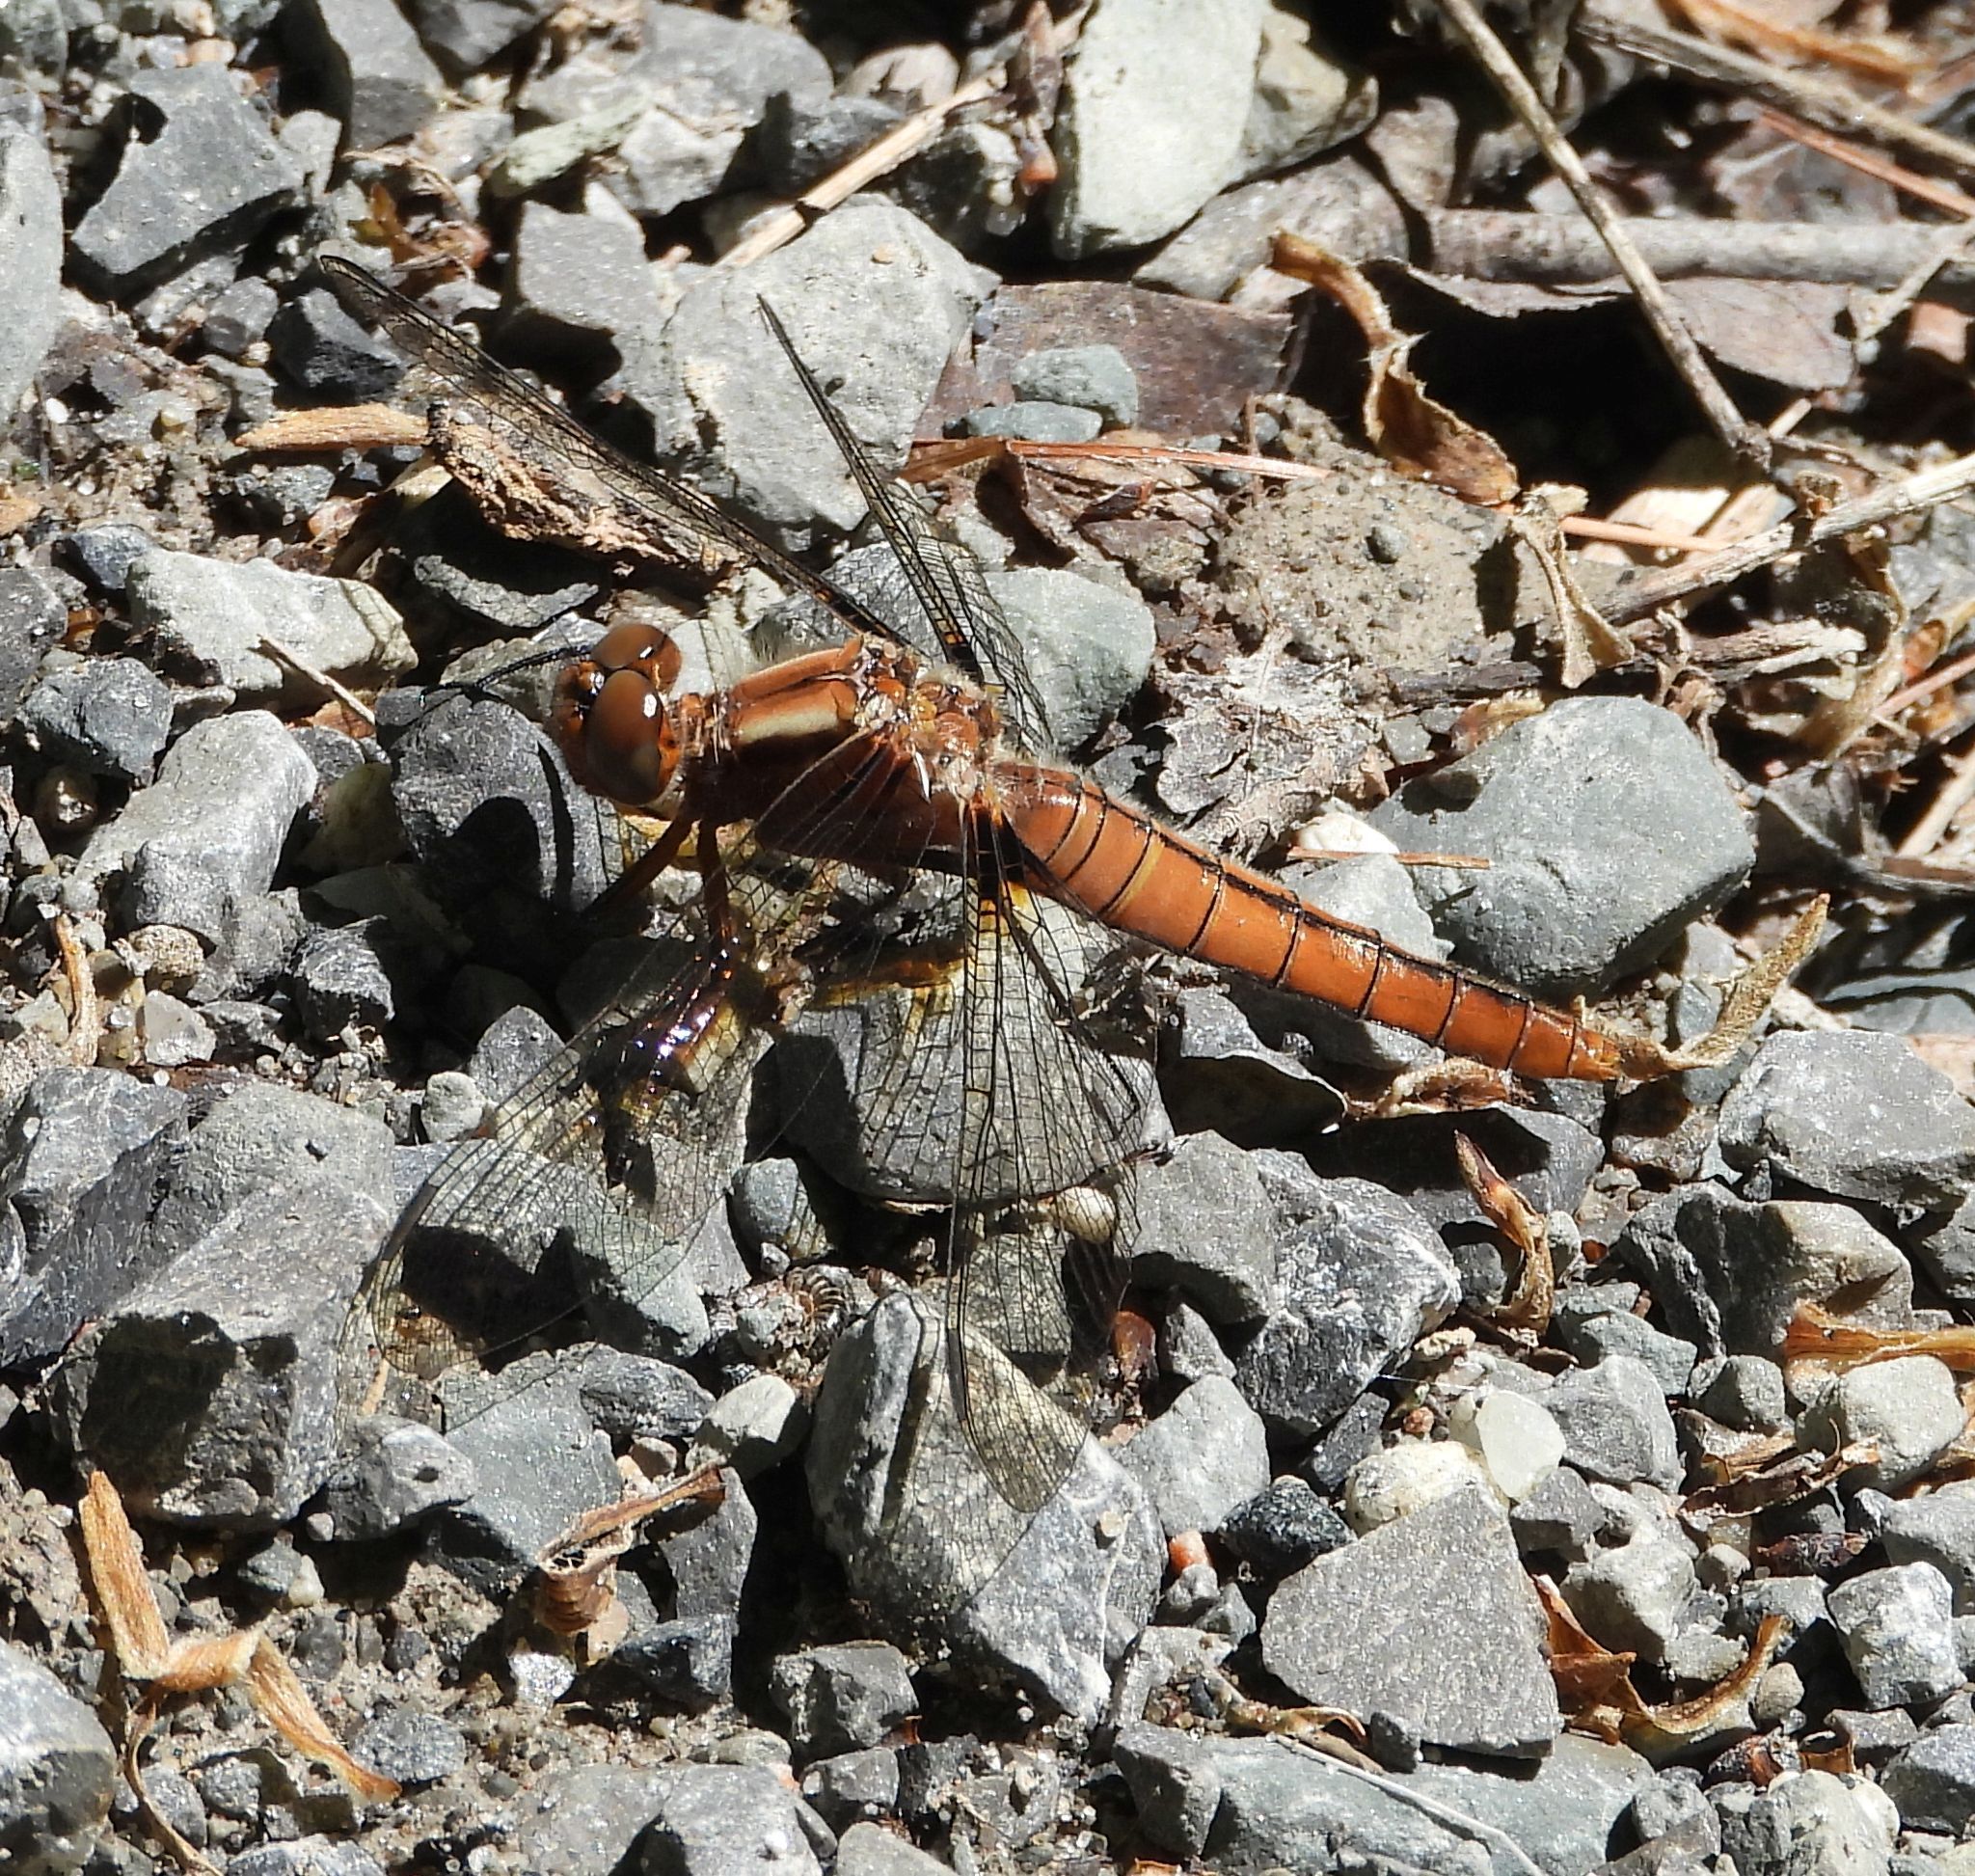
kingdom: Animalia
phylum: Arthropoda
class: Insecta
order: Odonata
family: Libellulidae
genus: Ladona
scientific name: Ladona julia
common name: Chalk-fronted corporal
